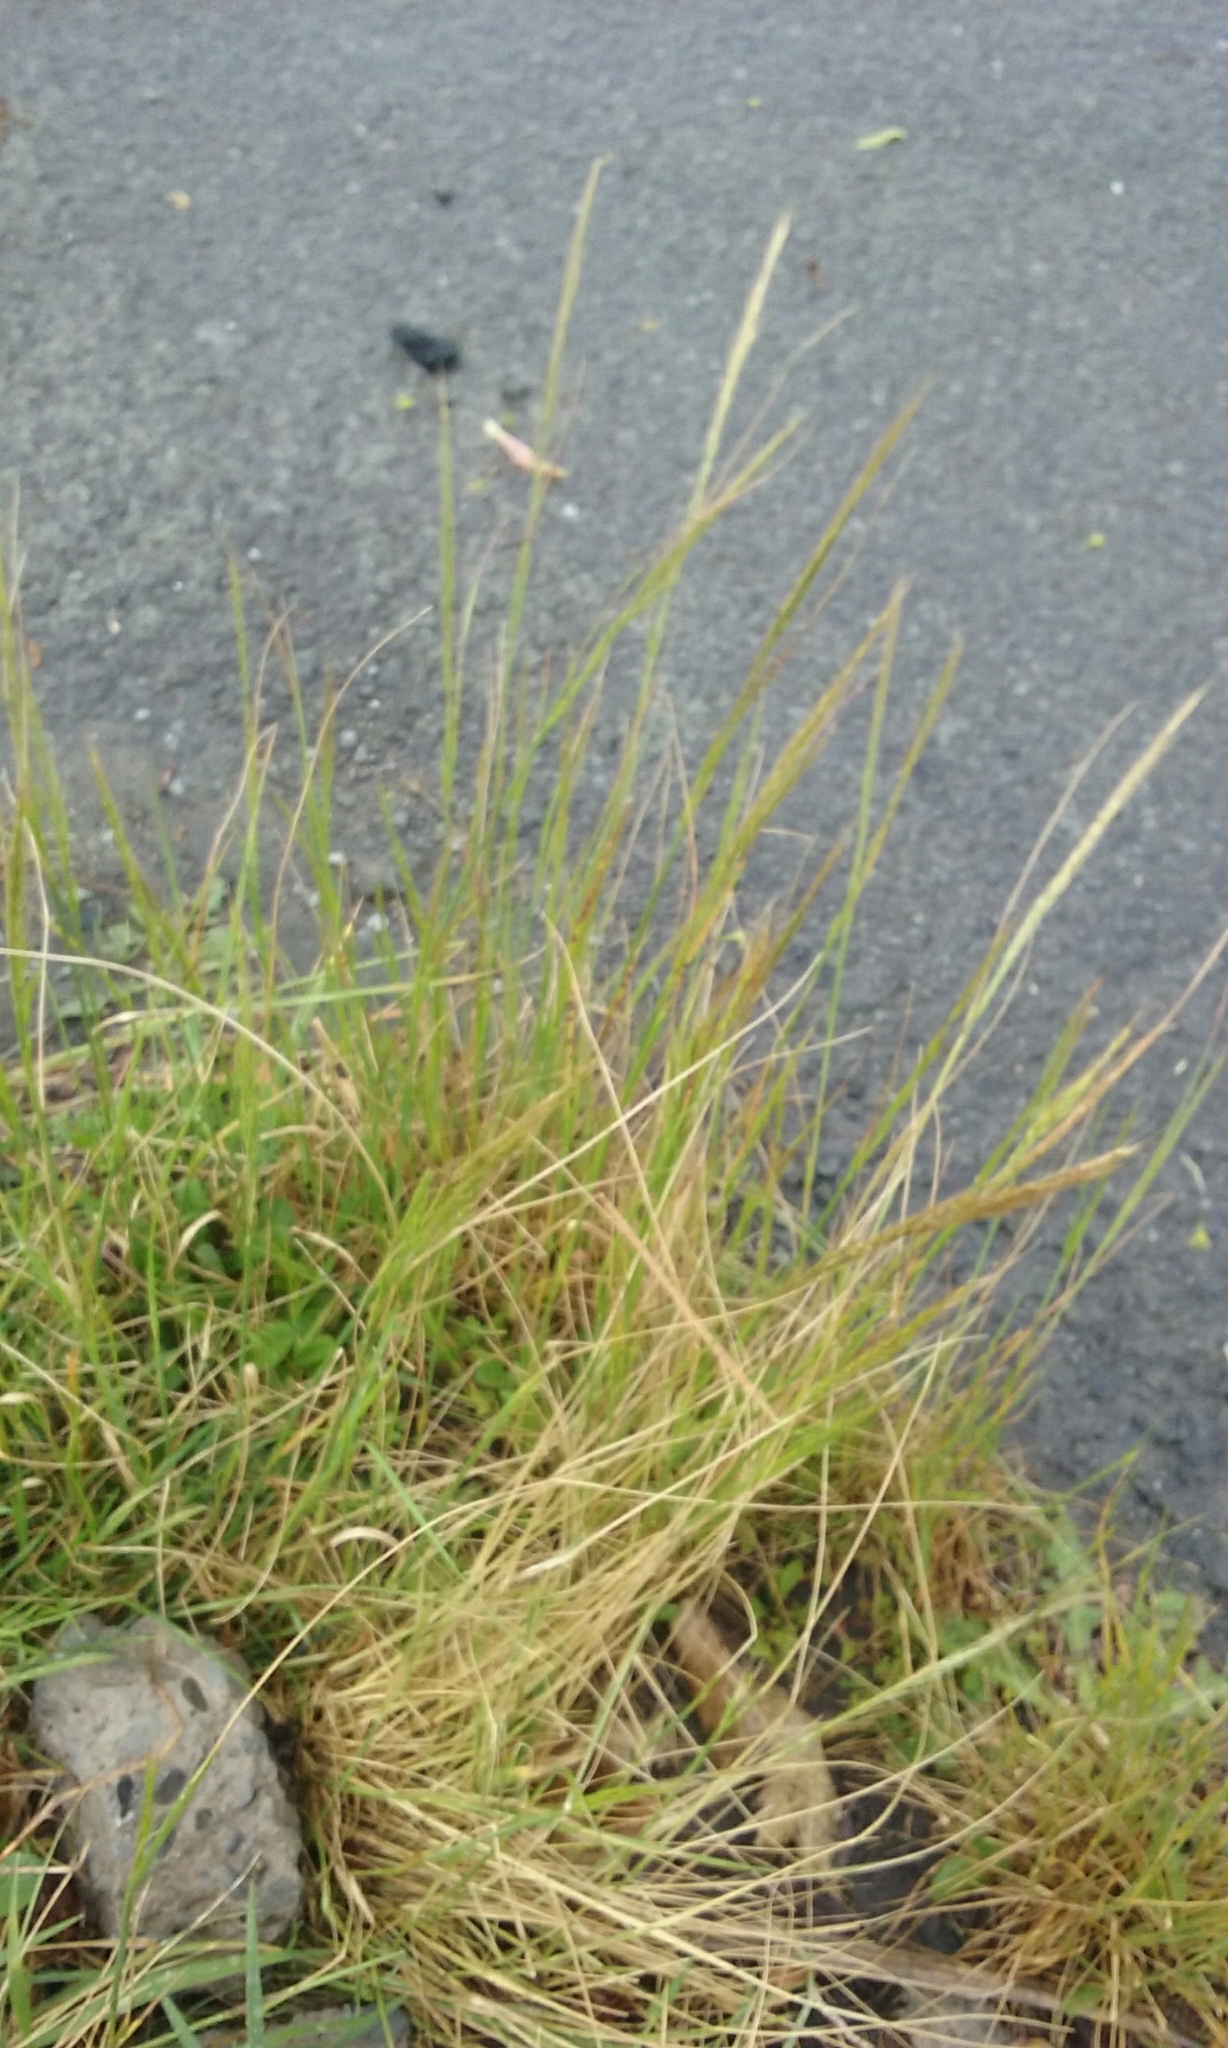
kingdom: Plantae
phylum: Tracheophyta
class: Liliopsida
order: Poales
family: Poaceae
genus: Festuca
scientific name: Festuca myuros
